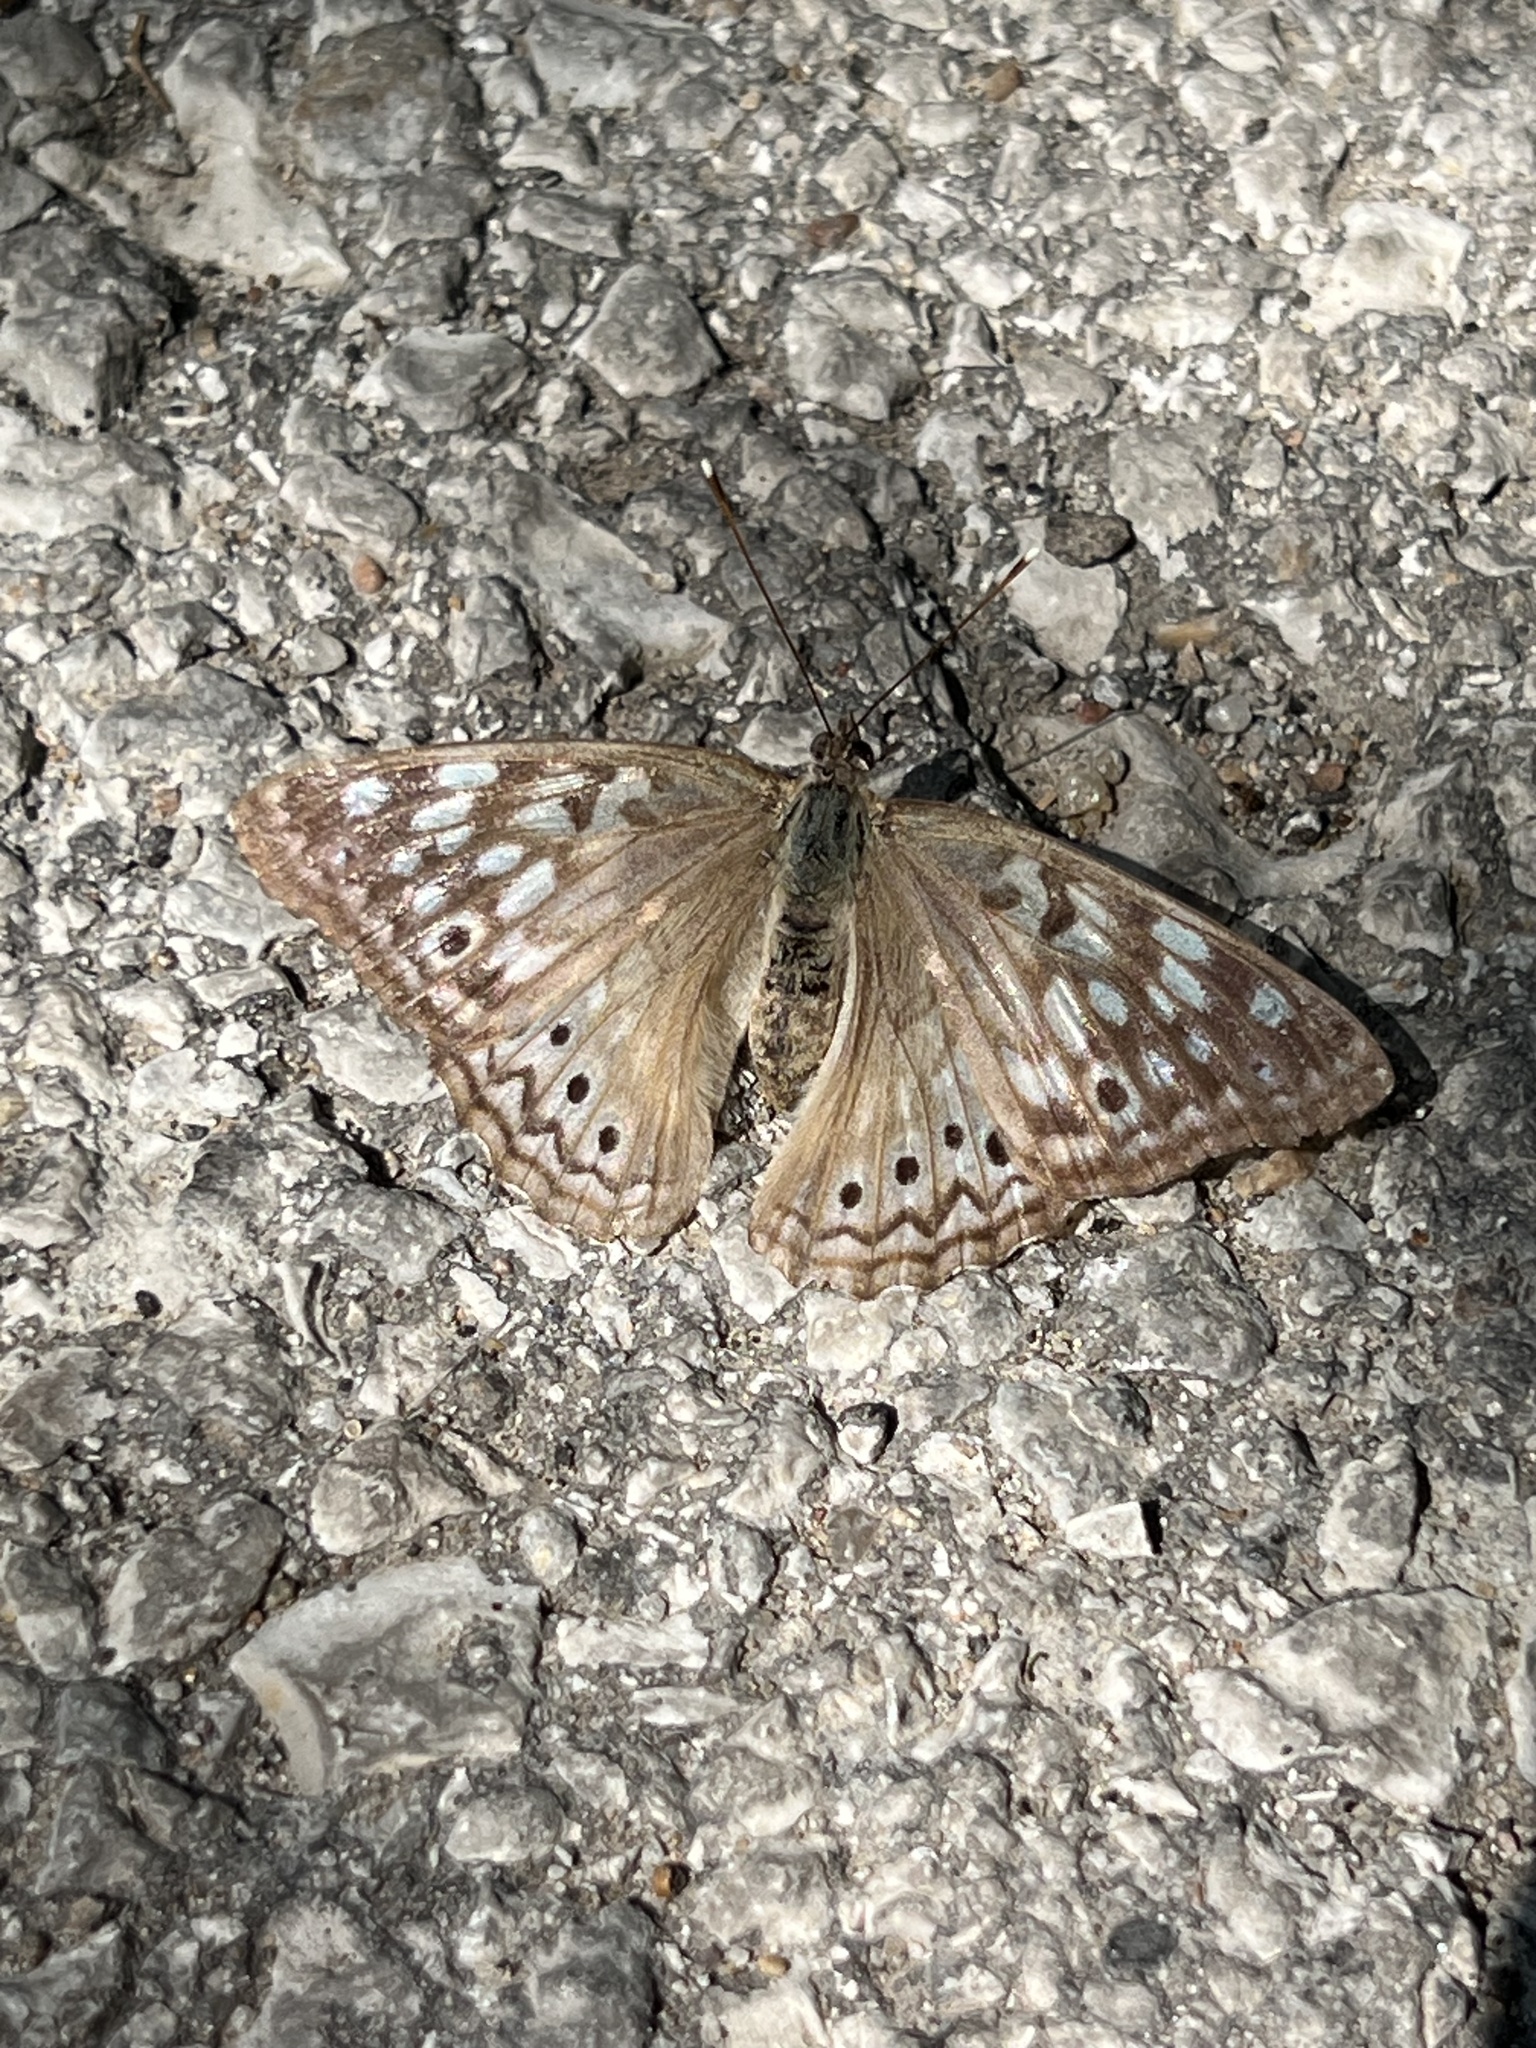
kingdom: Animalia
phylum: Arthropoda
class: Insecta
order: Lepidoptera
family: Nymphalidae
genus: Asterocampa
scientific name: Asterocampa celtis
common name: Hackberry emperor
